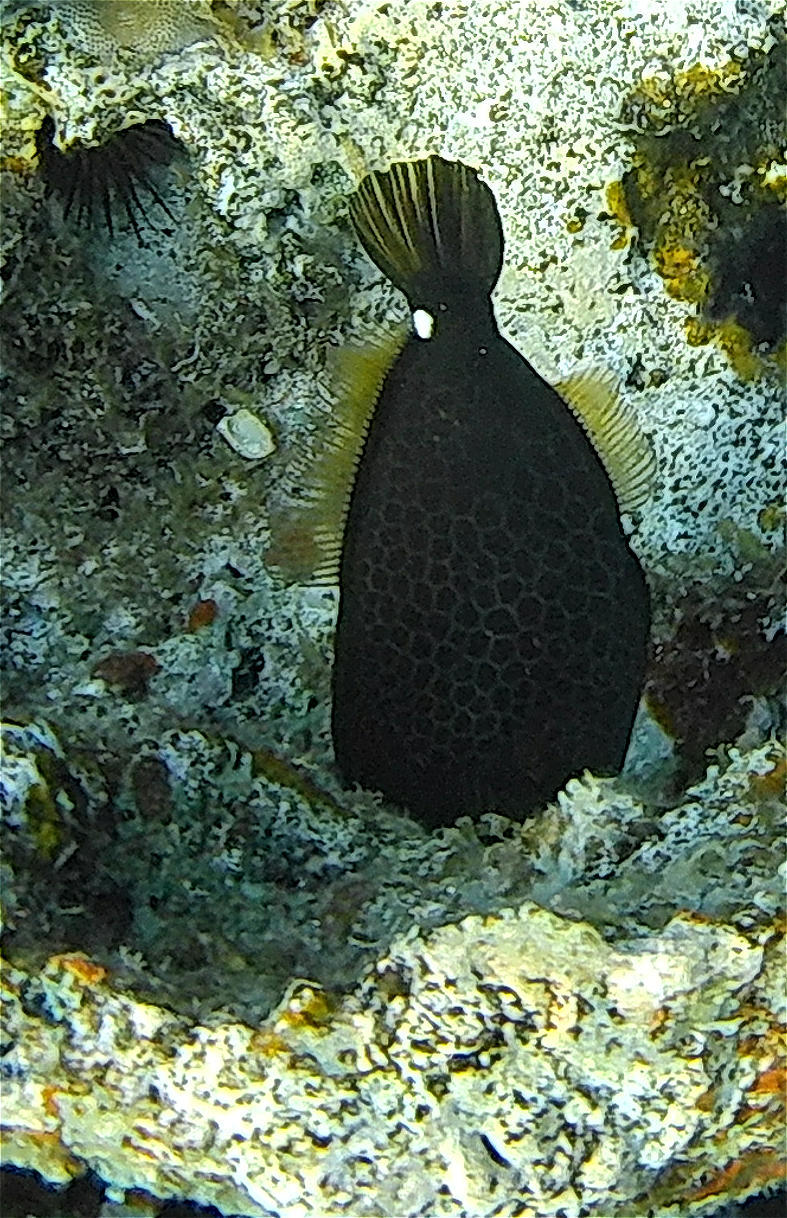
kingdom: Animalia
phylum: Chordata
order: Tetraodontiformes
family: Monacanthidae
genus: Cantherhines
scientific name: Cantherhines pardalis
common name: Honeycomb filefish
